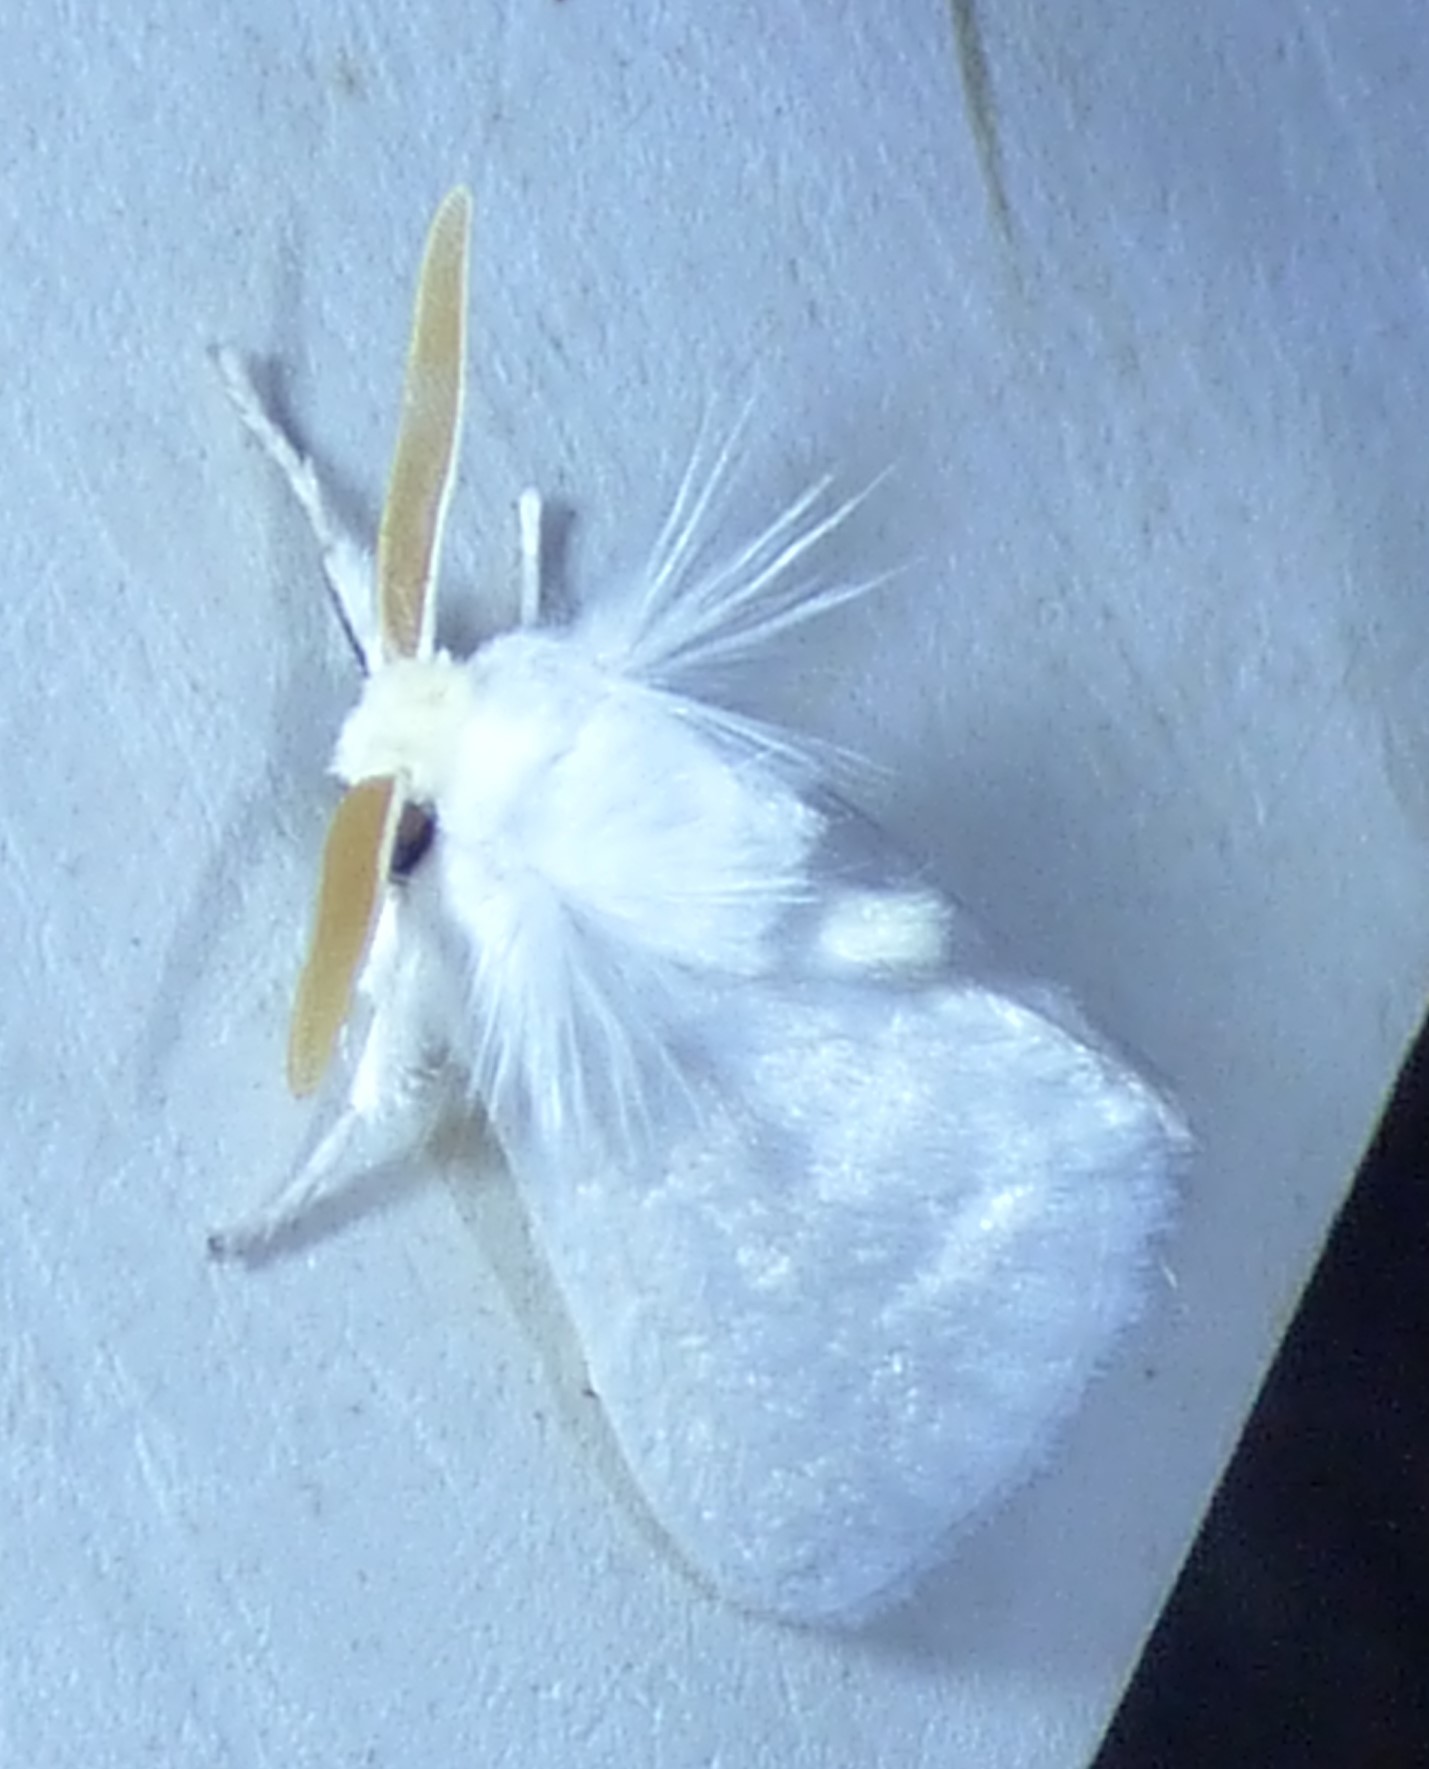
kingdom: Animalia
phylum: Arthropoda
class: Insecta
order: Lepidoptera
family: Megalopygidae
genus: Norape
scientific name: Norape cretata
